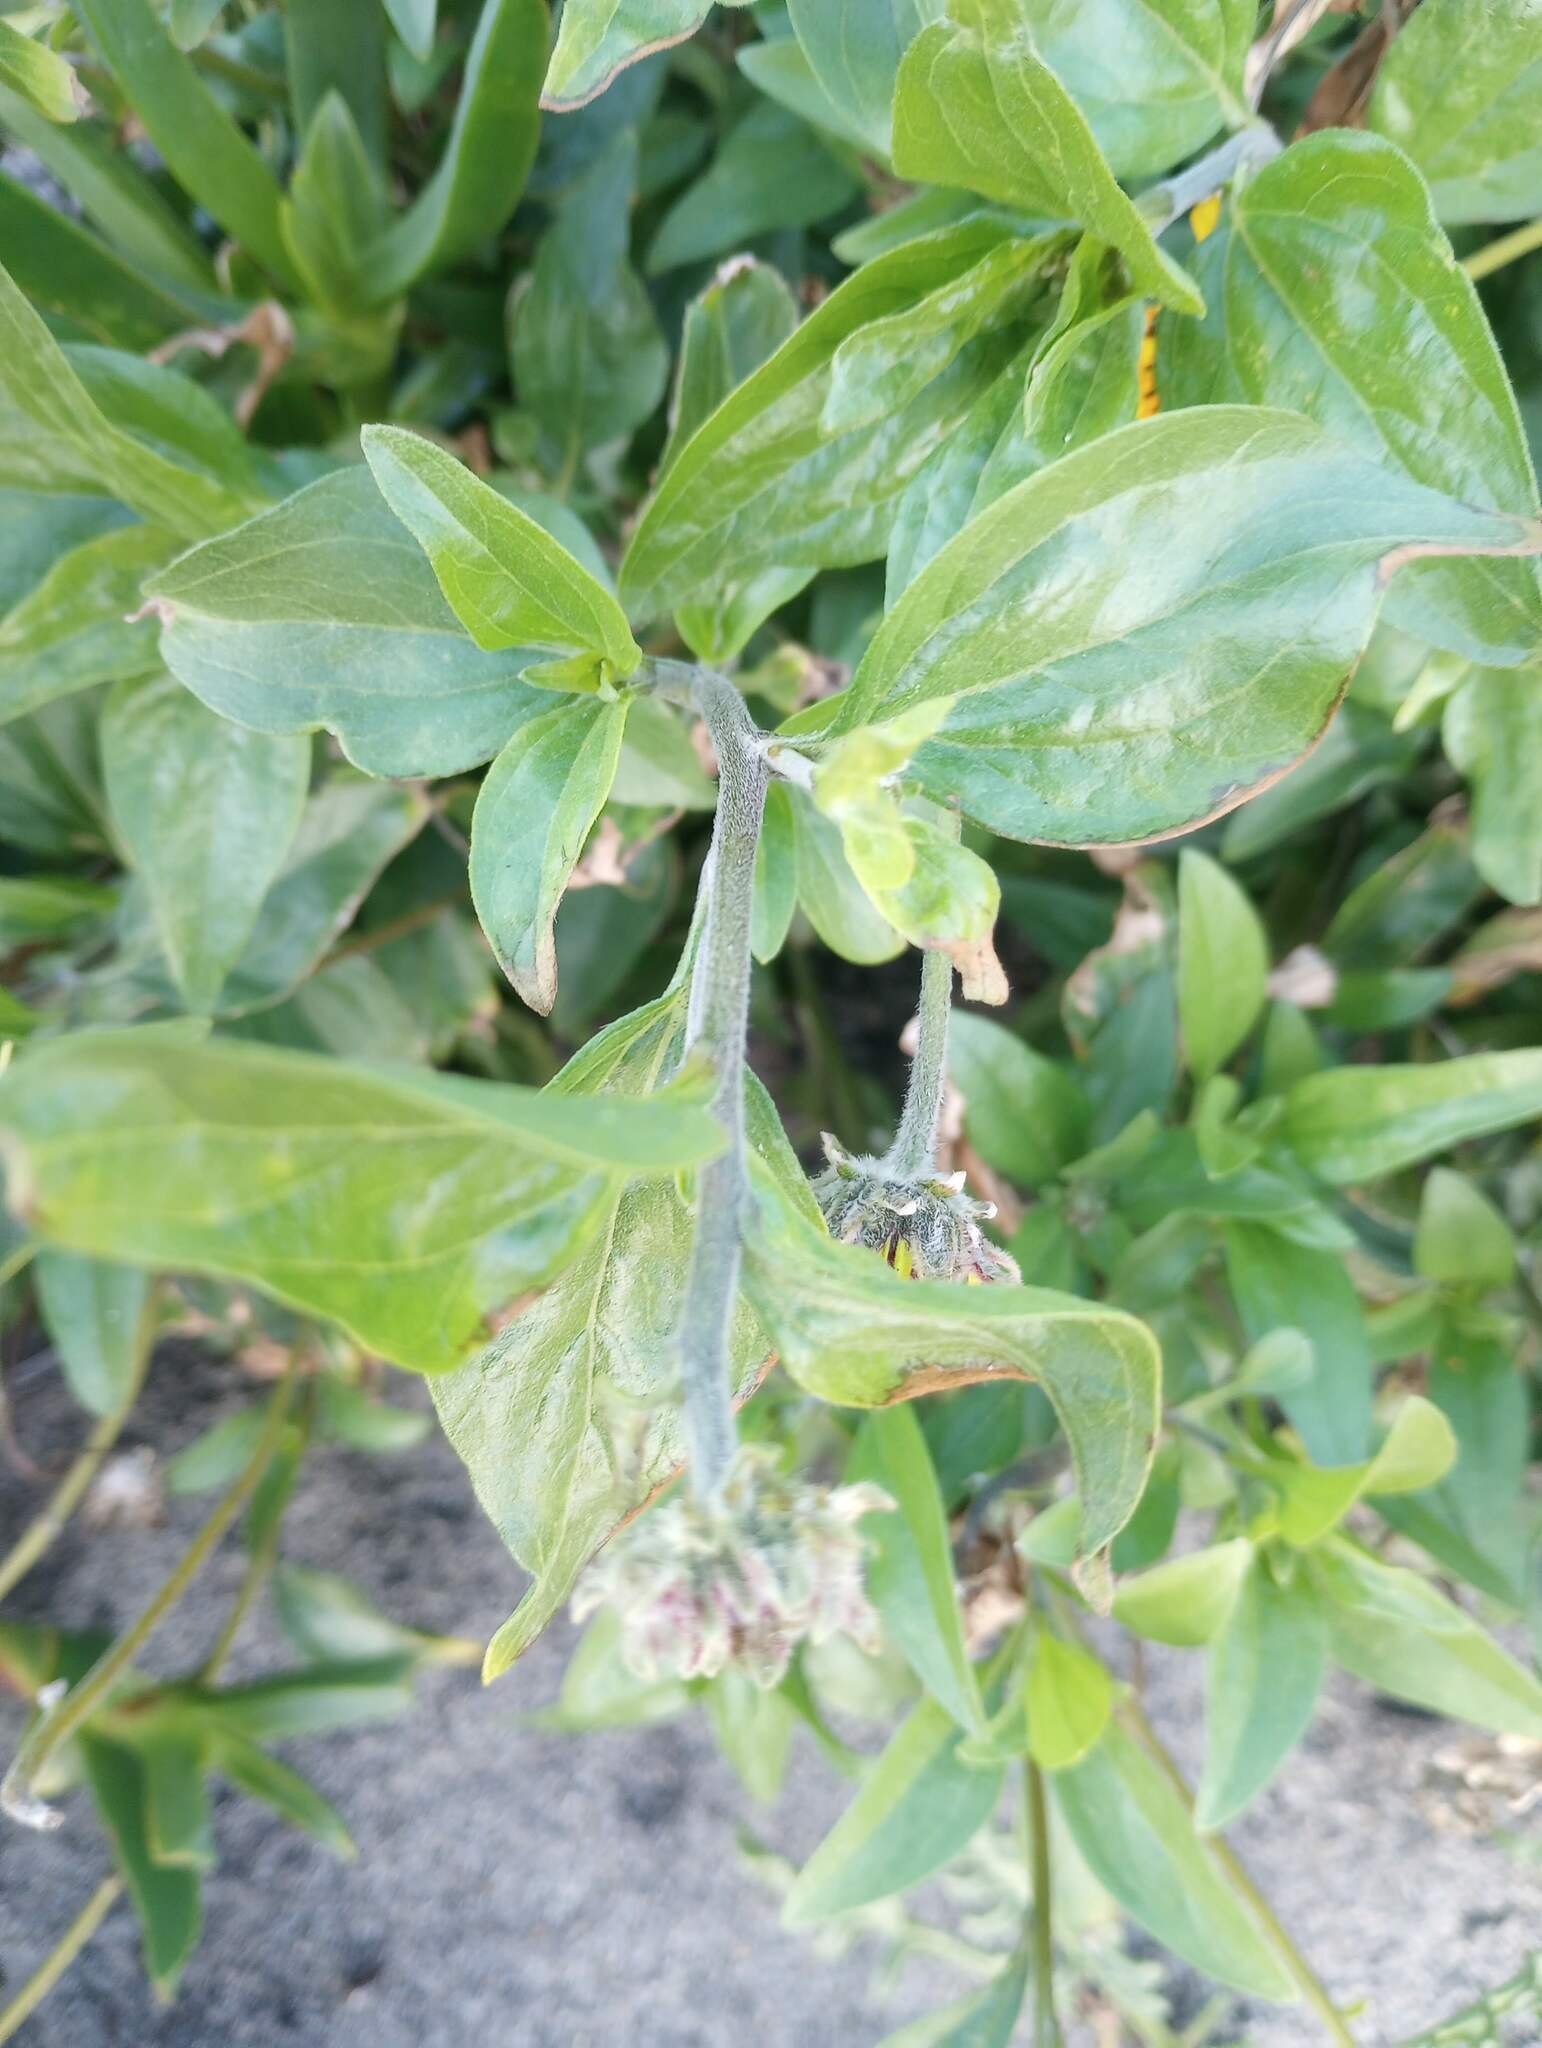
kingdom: Plantae
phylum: Tracheophyta
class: Magnoliopsida
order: Asterales
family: Asteraceae
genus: Encelia
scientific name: Encelia californica
